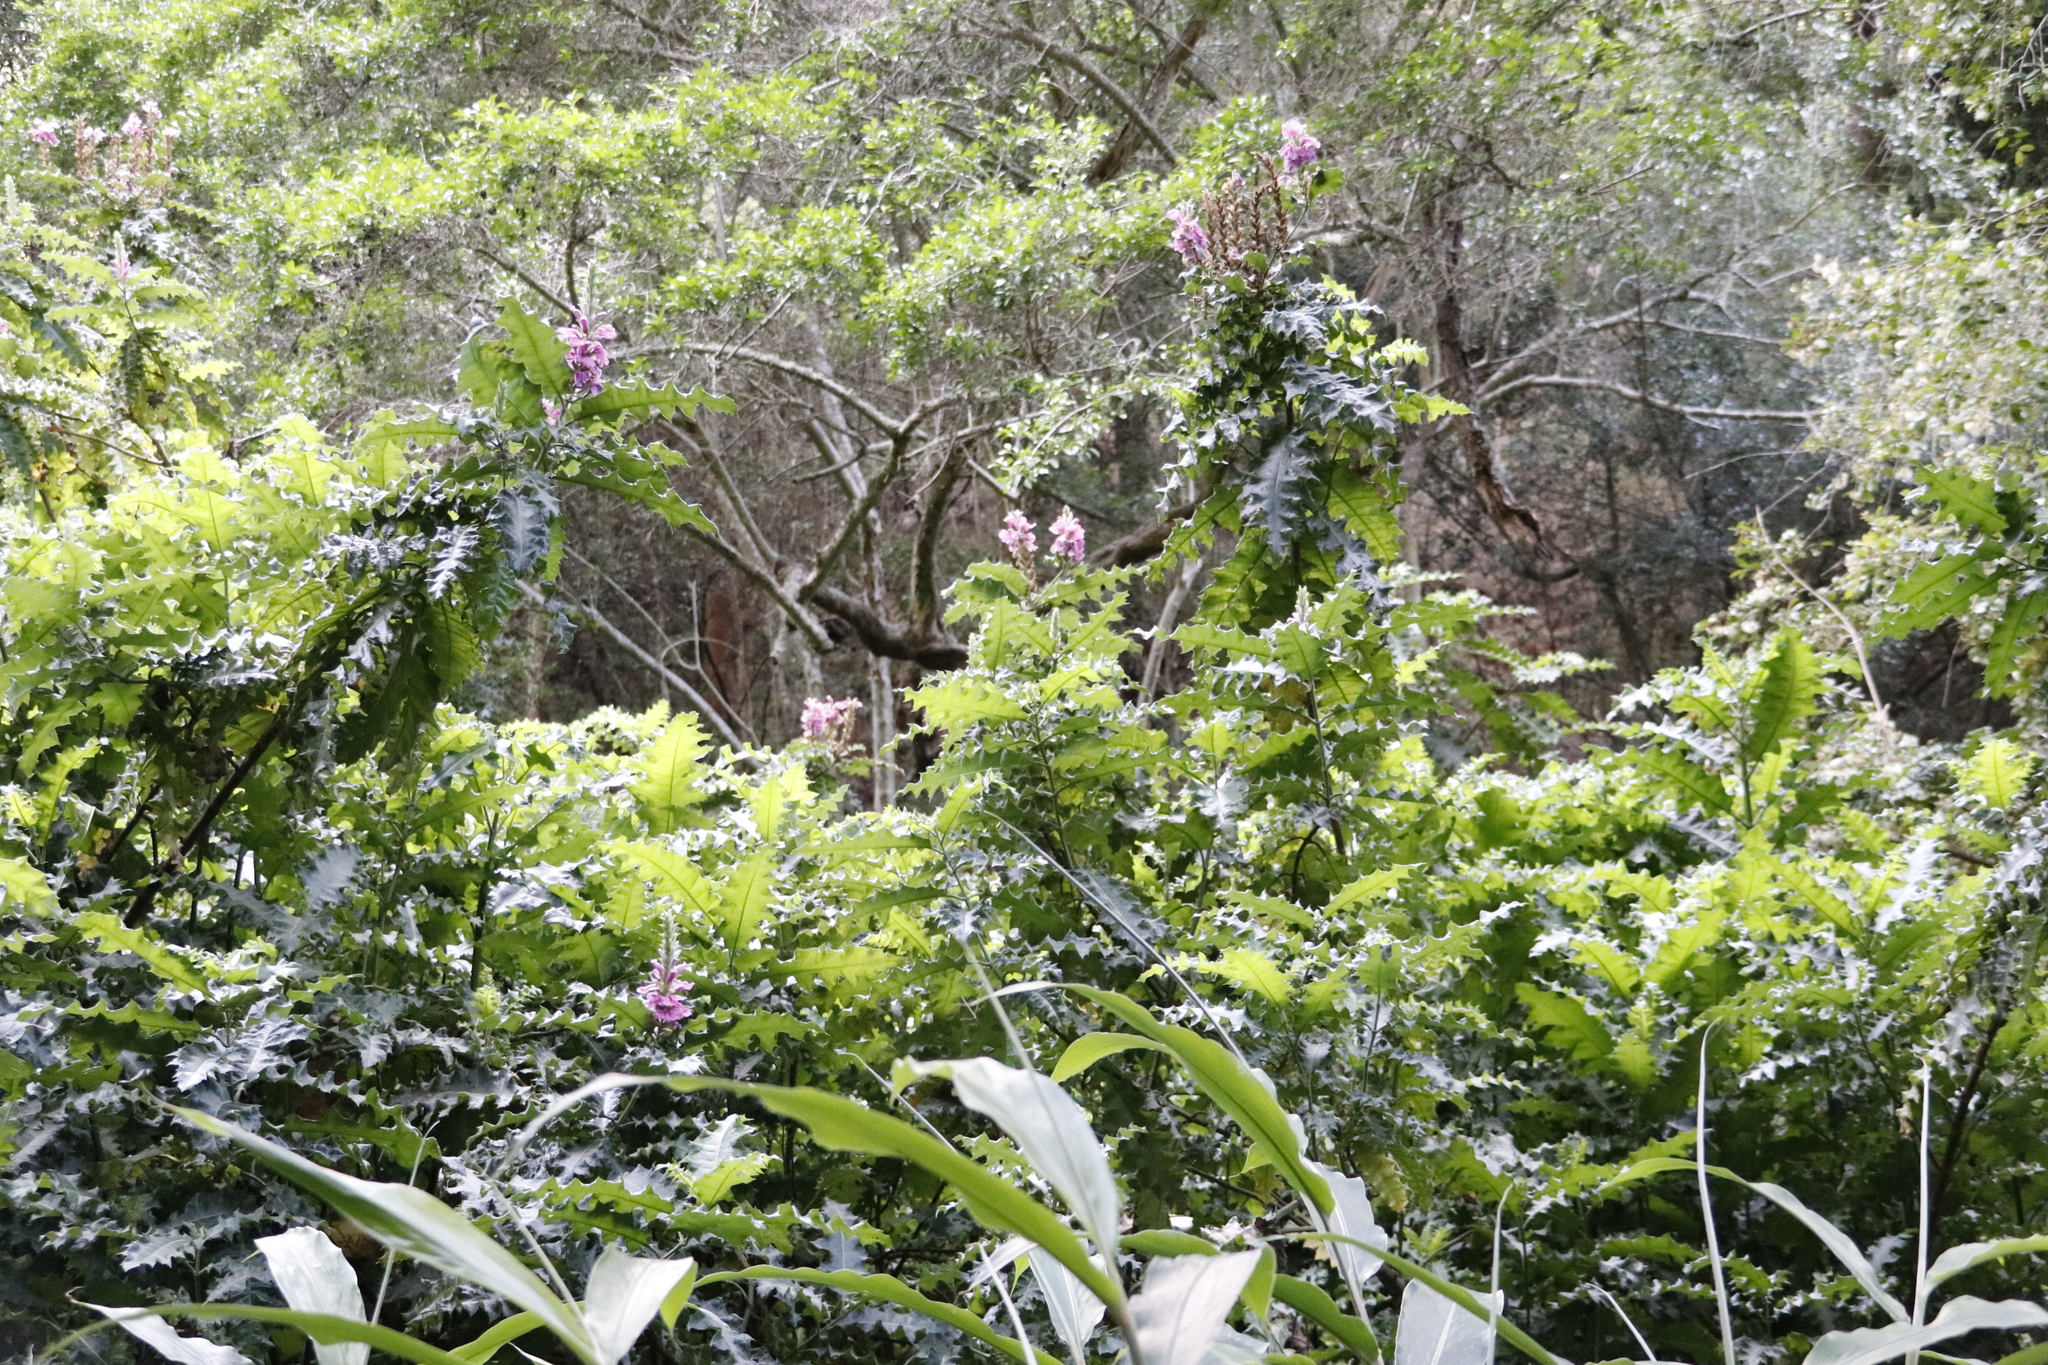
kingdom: Plantae
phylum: Tracheophyta
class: Magnoliopsida
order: Lamiales
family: Acanthaceae
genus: Acanthus
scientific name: Acanthus polystachyus
